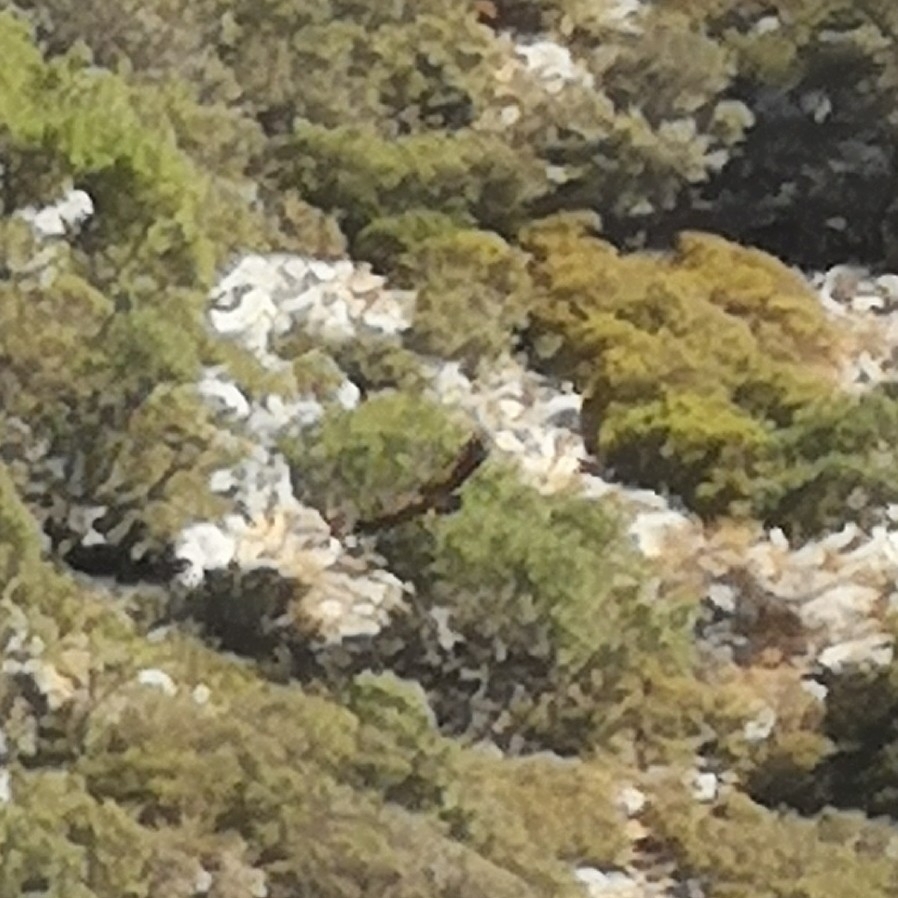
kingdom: Animalia
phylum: Chordata
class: Aves
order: Accipitriformes
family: Accipitridae
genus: Gyps
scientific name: Gyps fulvus
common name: Griffon vulture
